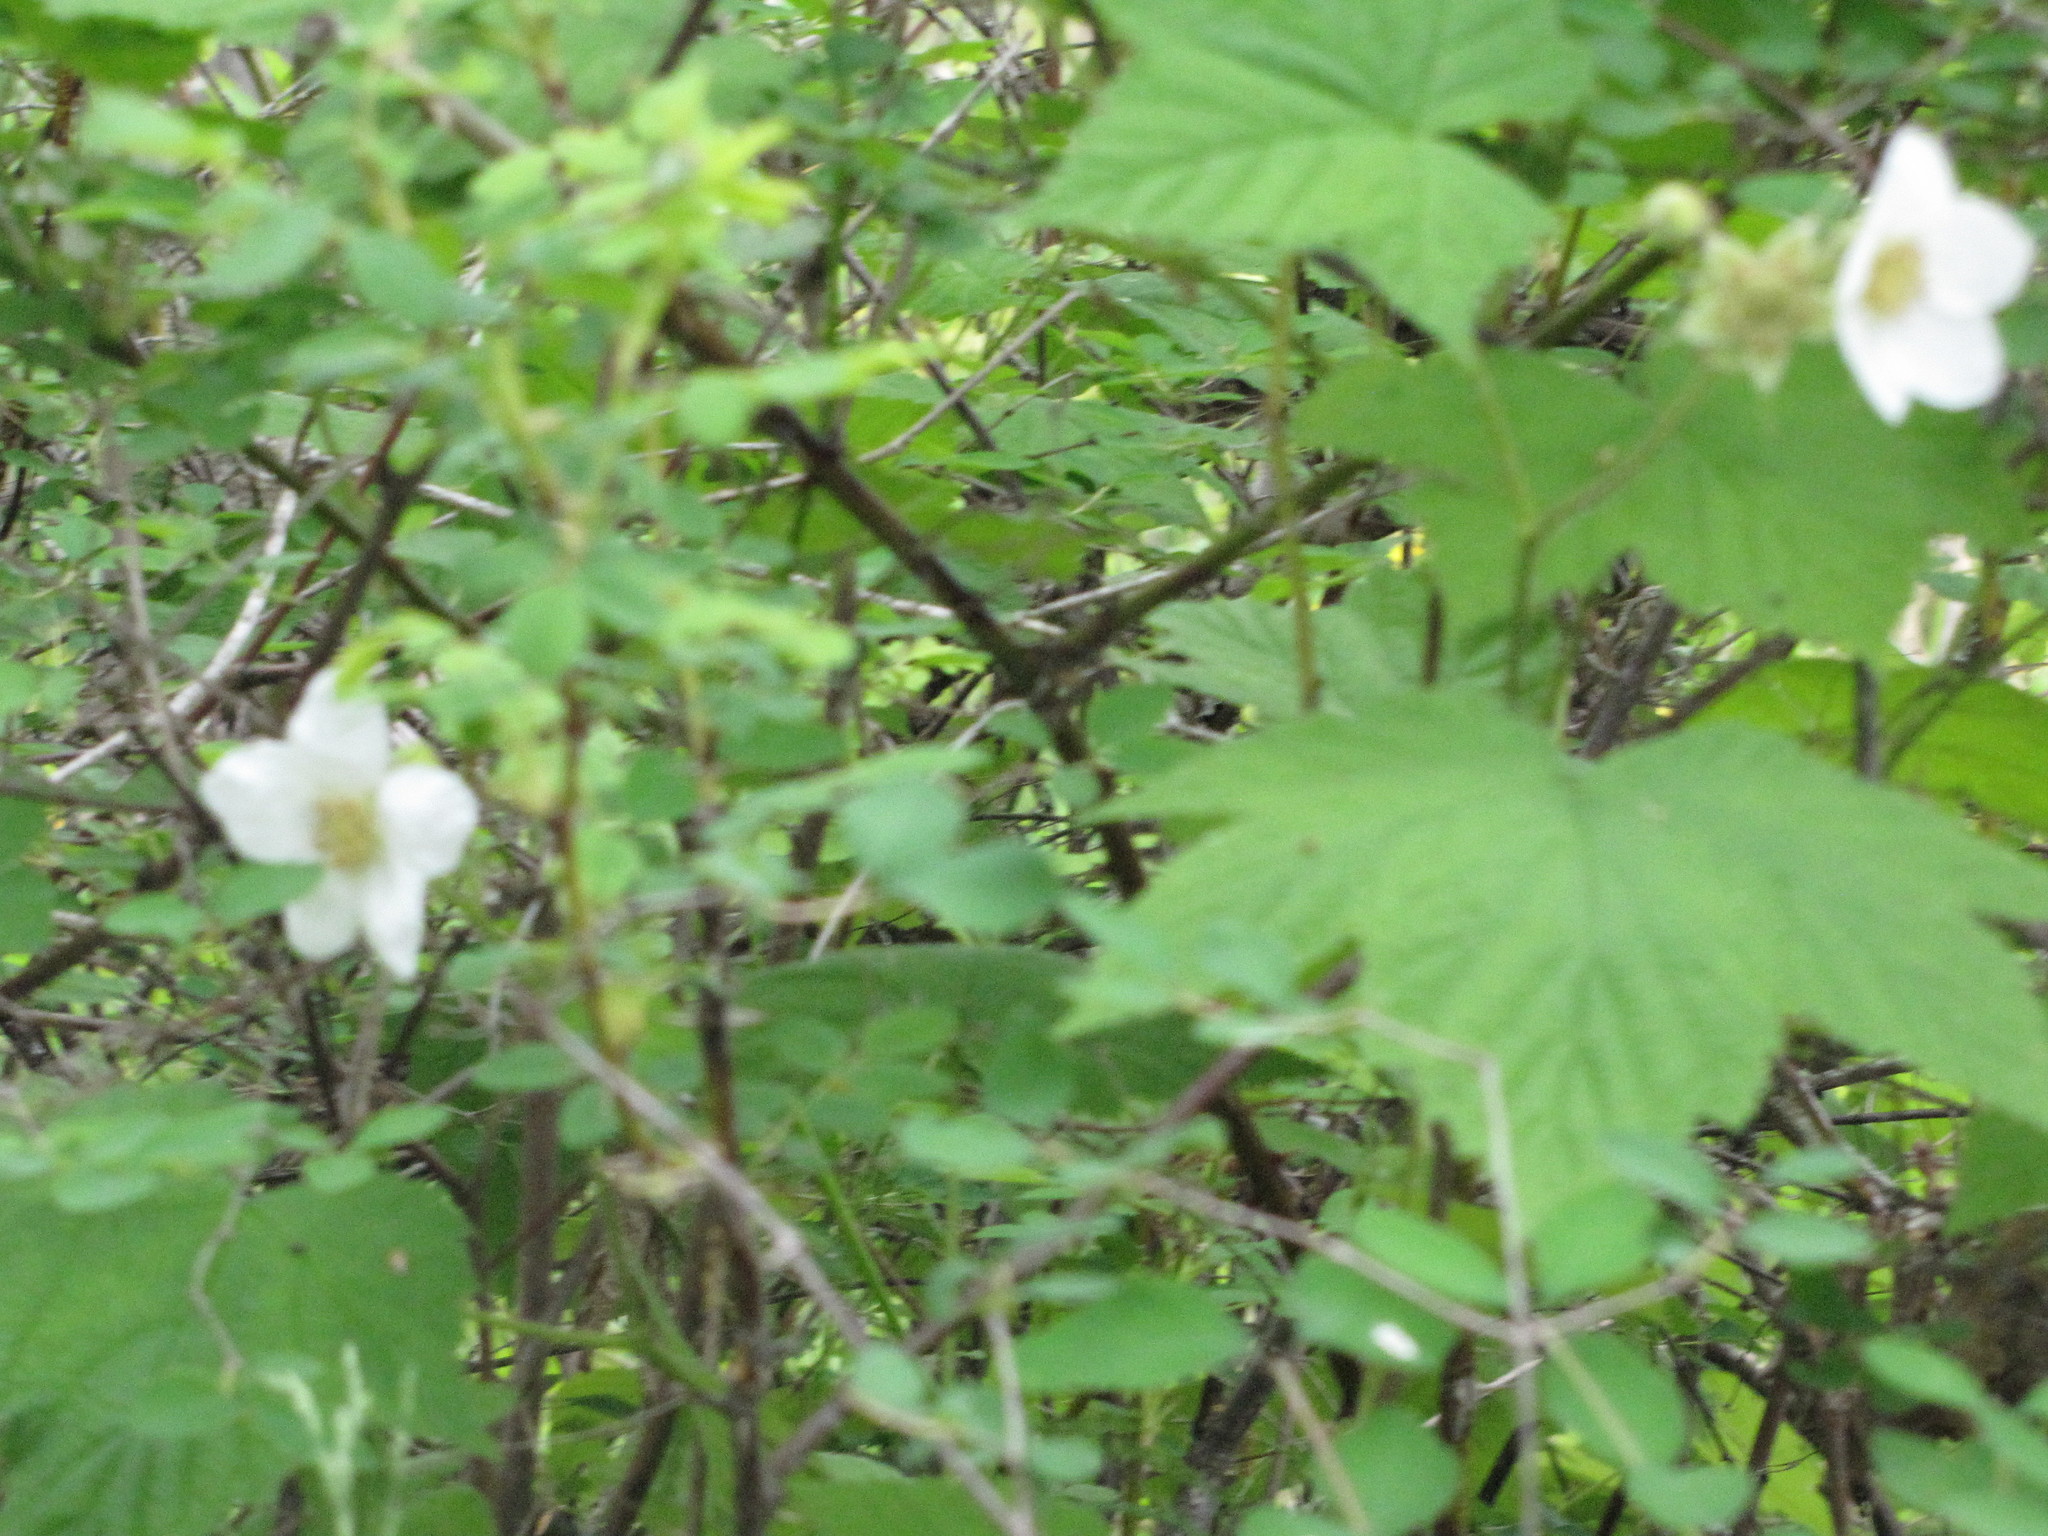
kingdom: Plantae
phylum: Tracheophyta
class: Magnoliopsida
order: Rosales
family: Rosaceae
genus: Rubus
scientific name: Rubus parviflorus
